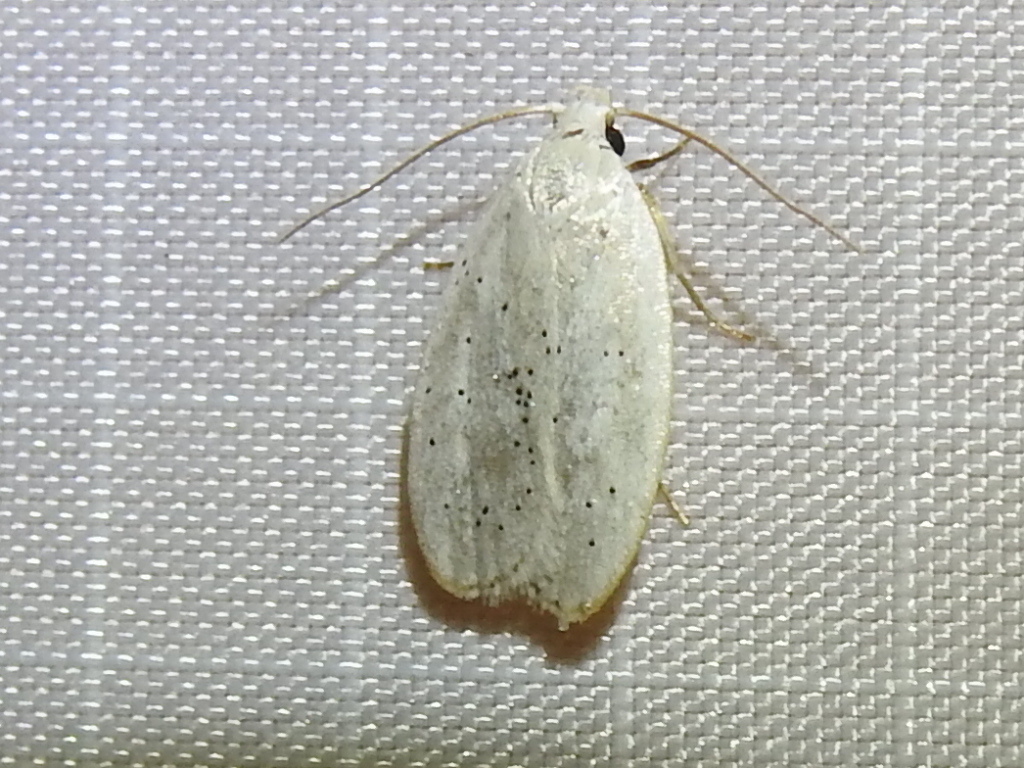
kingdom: Animalia
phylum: Arthropoda
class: Insecta
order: Lepidoptera
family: Peleopodidae
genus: Durrantia
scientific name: Durrantia piperatella
